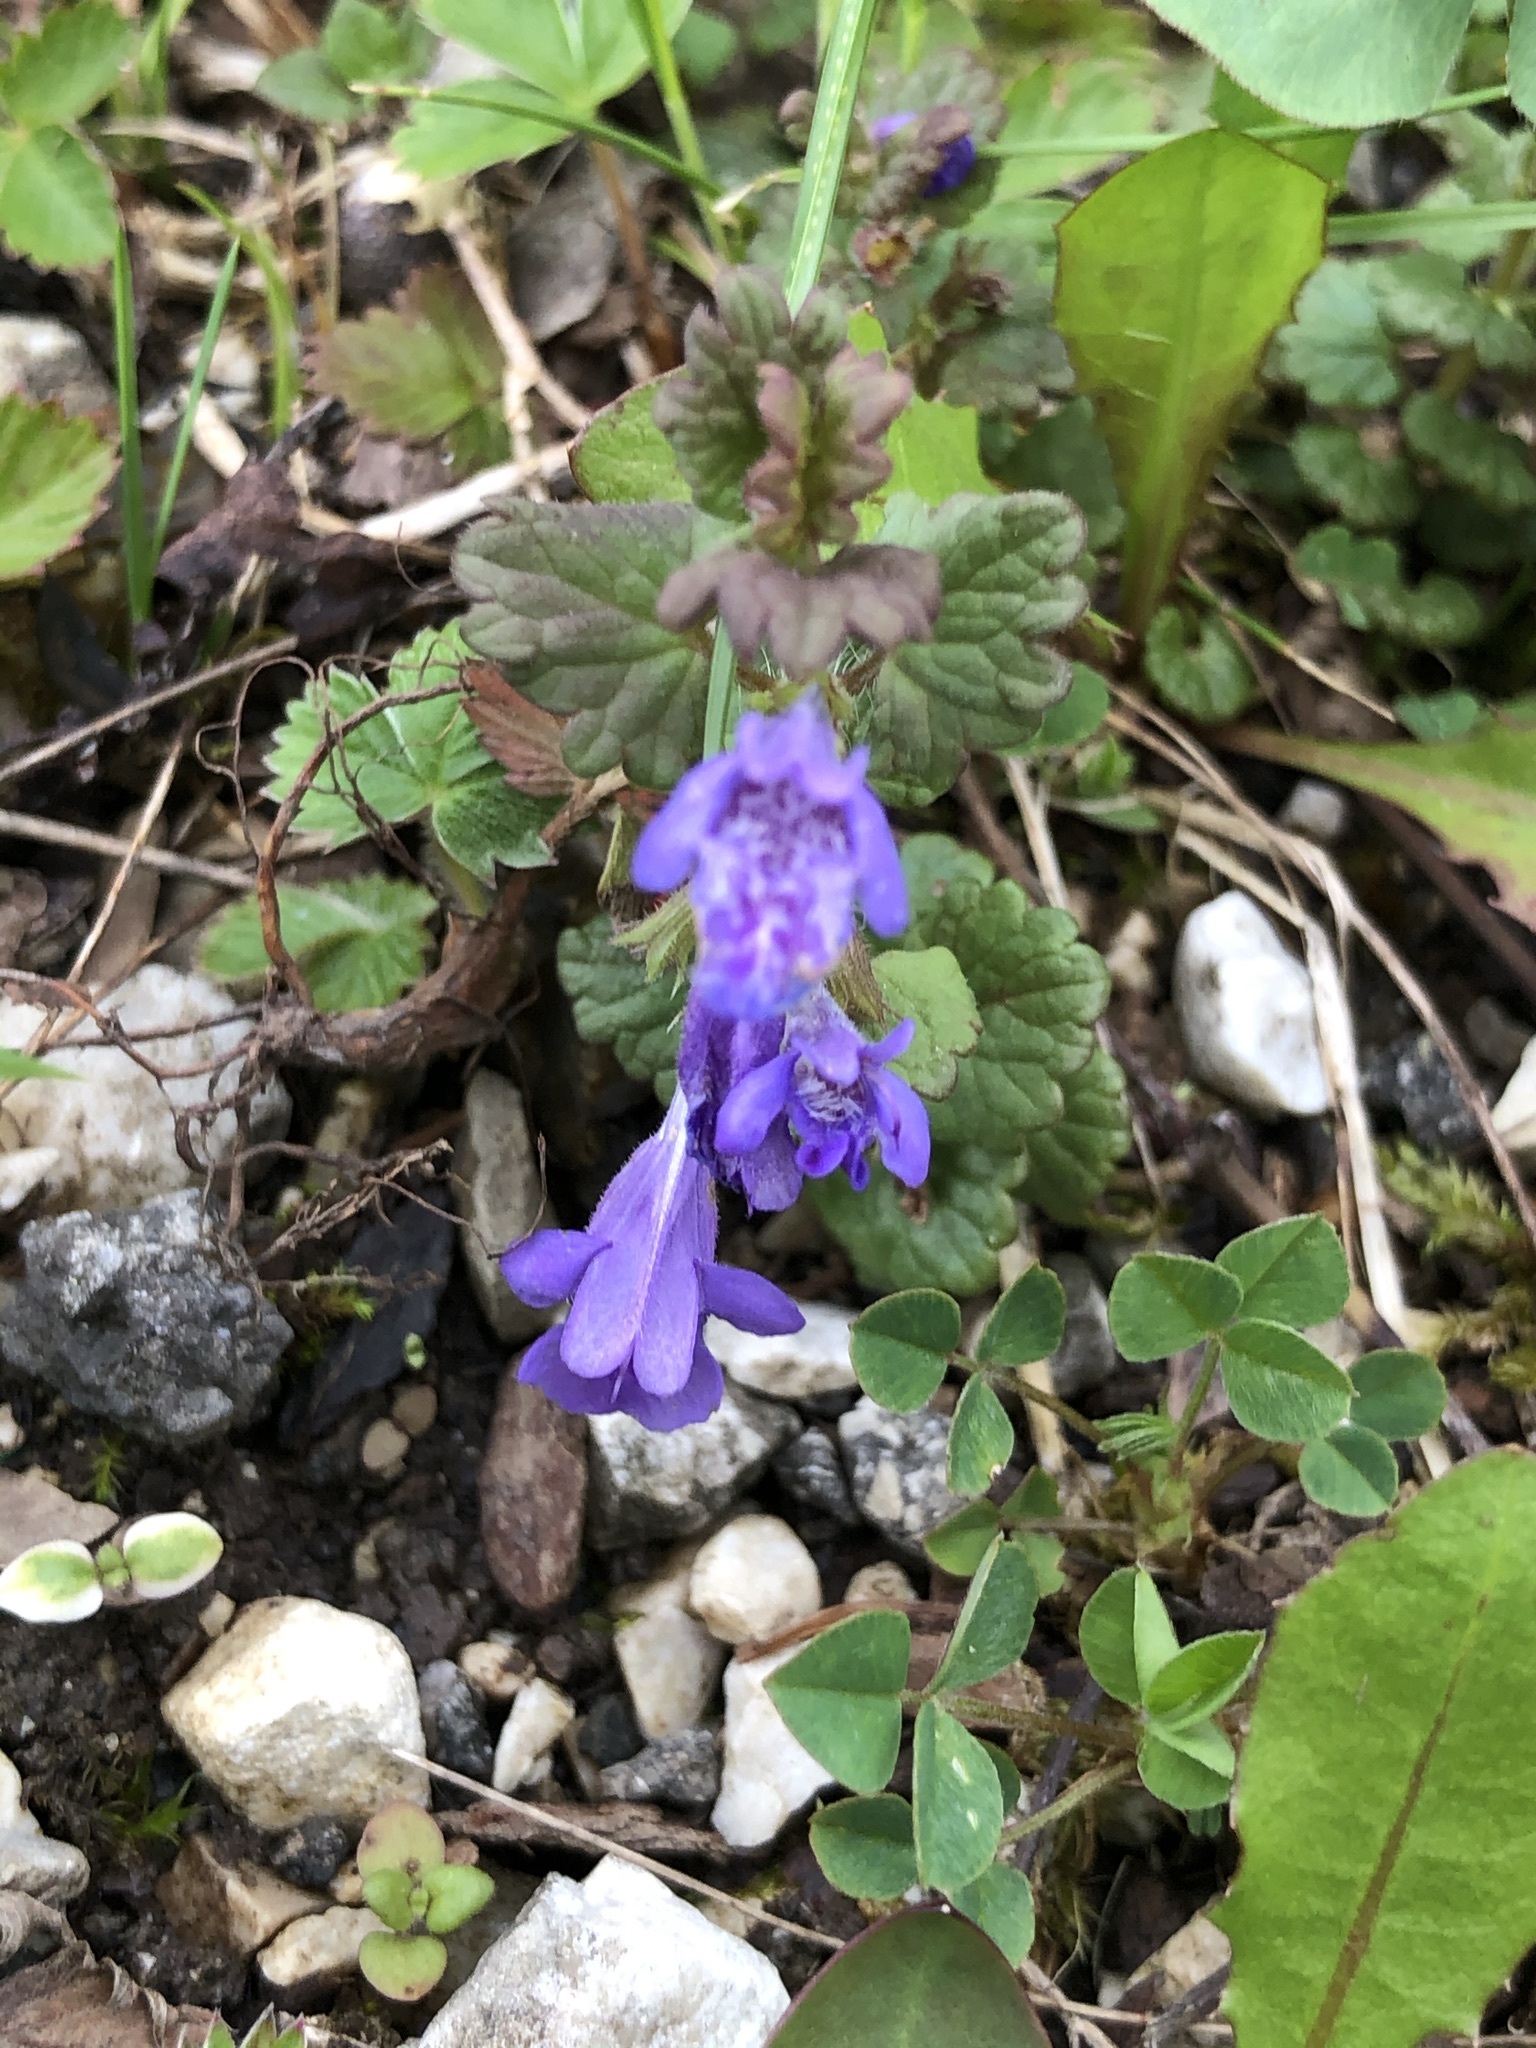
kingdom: Plantae
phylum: Tracheophyta
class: Magnoliopsida
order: Lamiales
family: Lamiaceae
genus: Glechoma
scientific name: Glechoma hederacea
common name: Ground ivy
